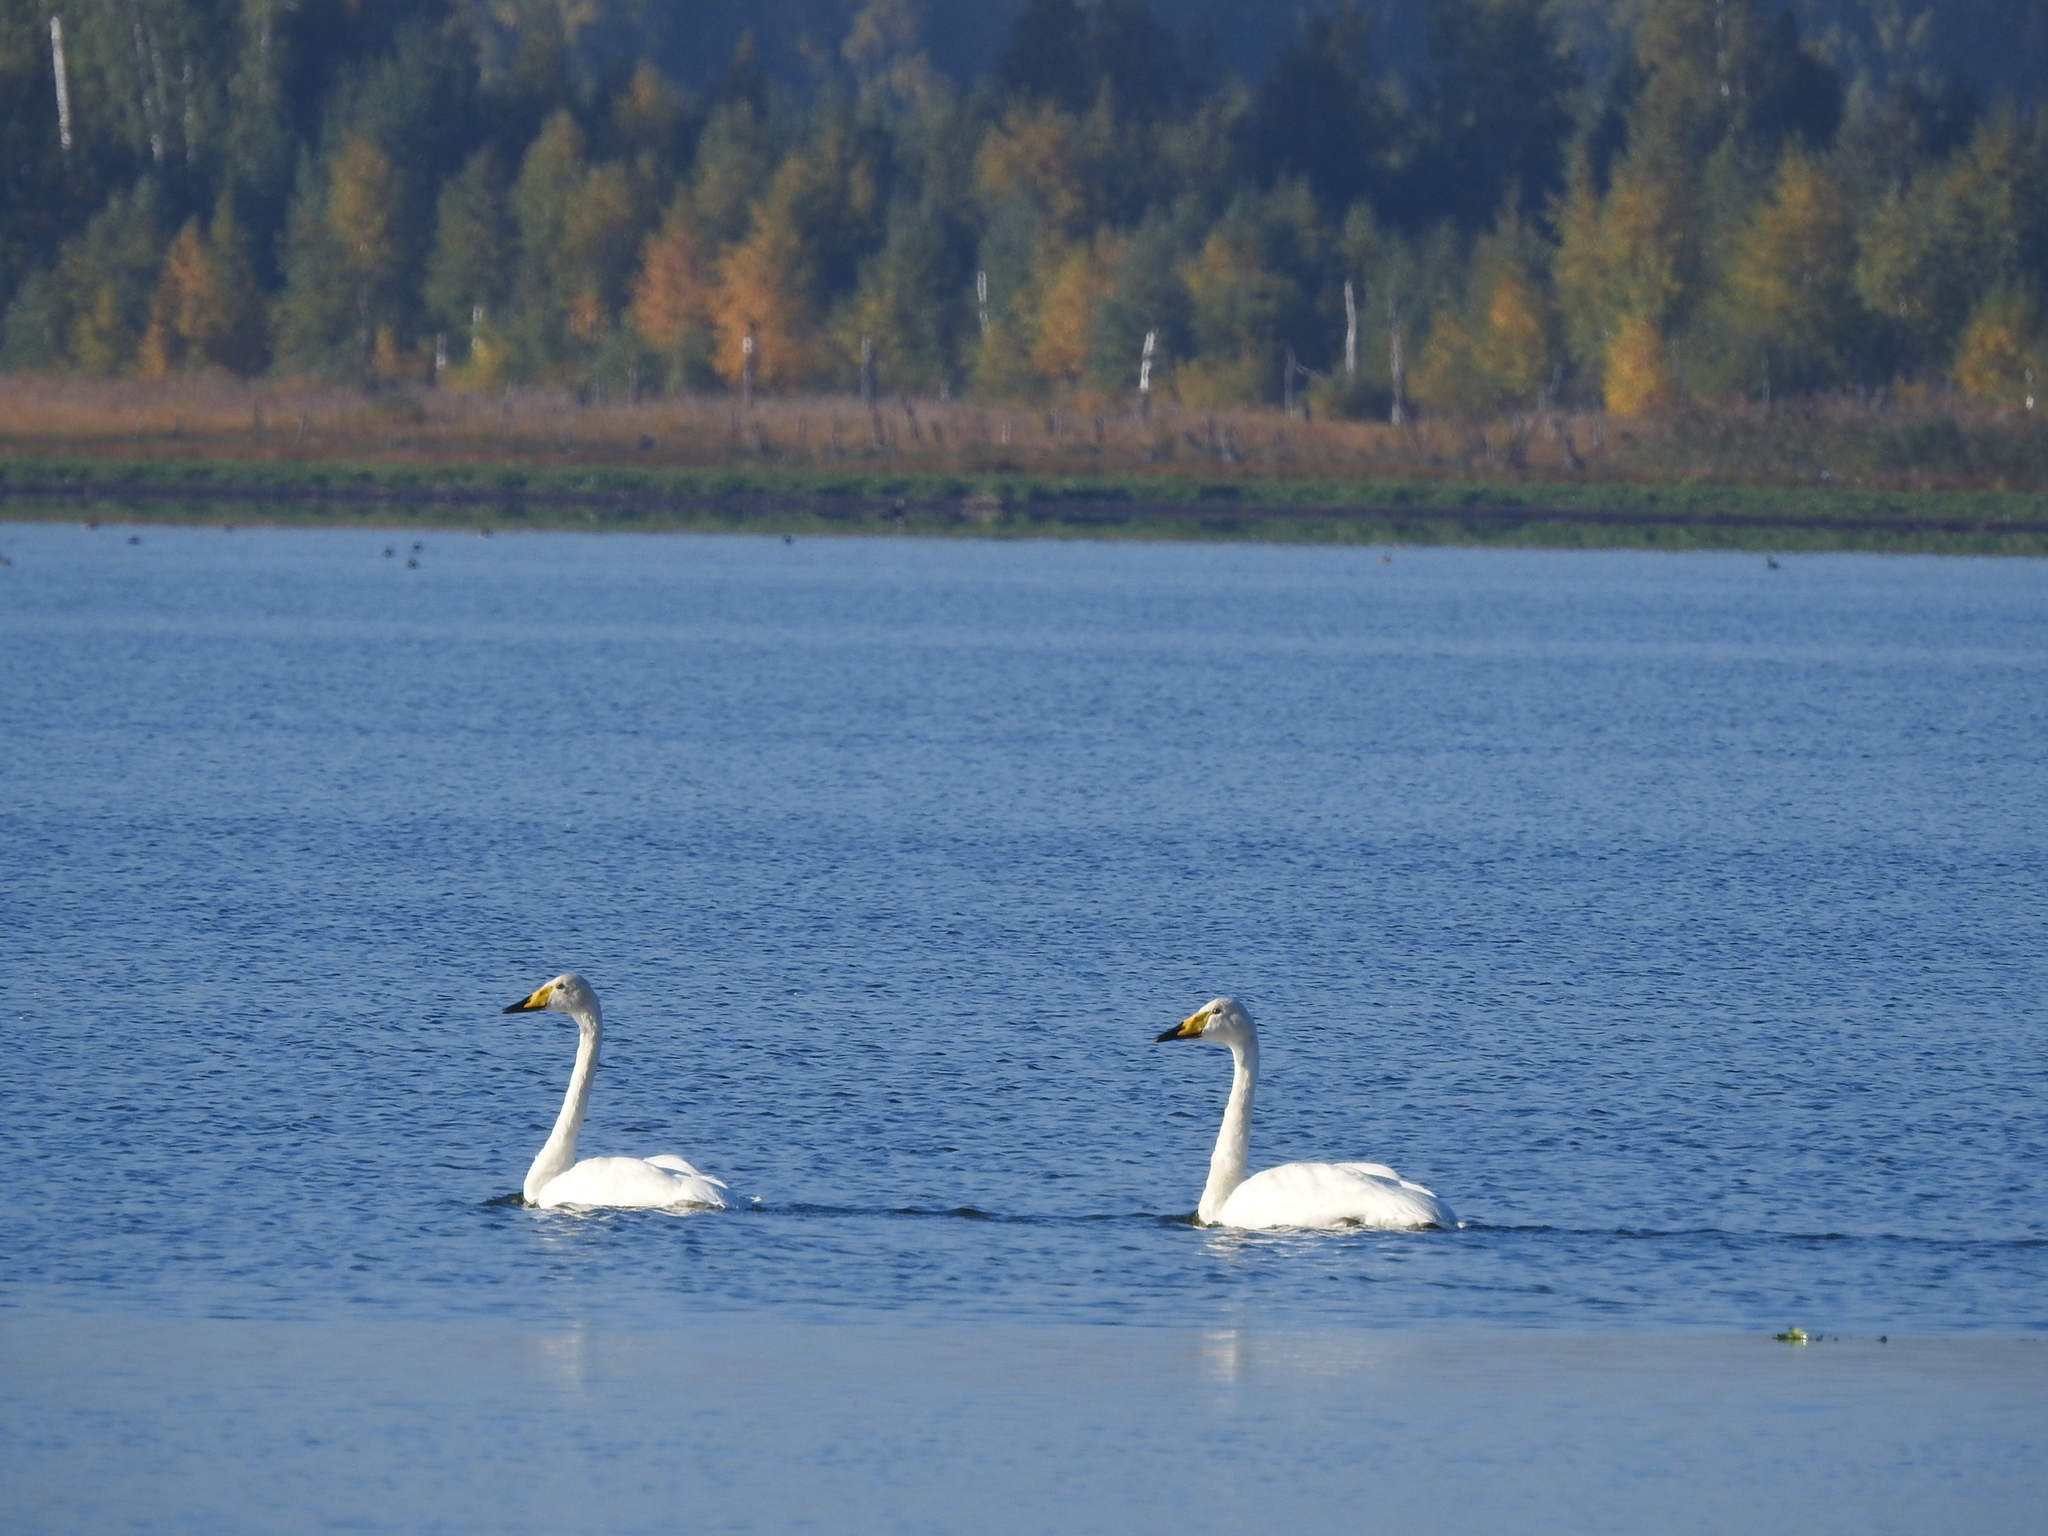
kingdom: Animalia
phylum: Chordata
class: Aves
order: Anseriformes
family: Anatidae
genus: Cygnus
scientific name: Cygnus cygnus
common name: Whooper swan
